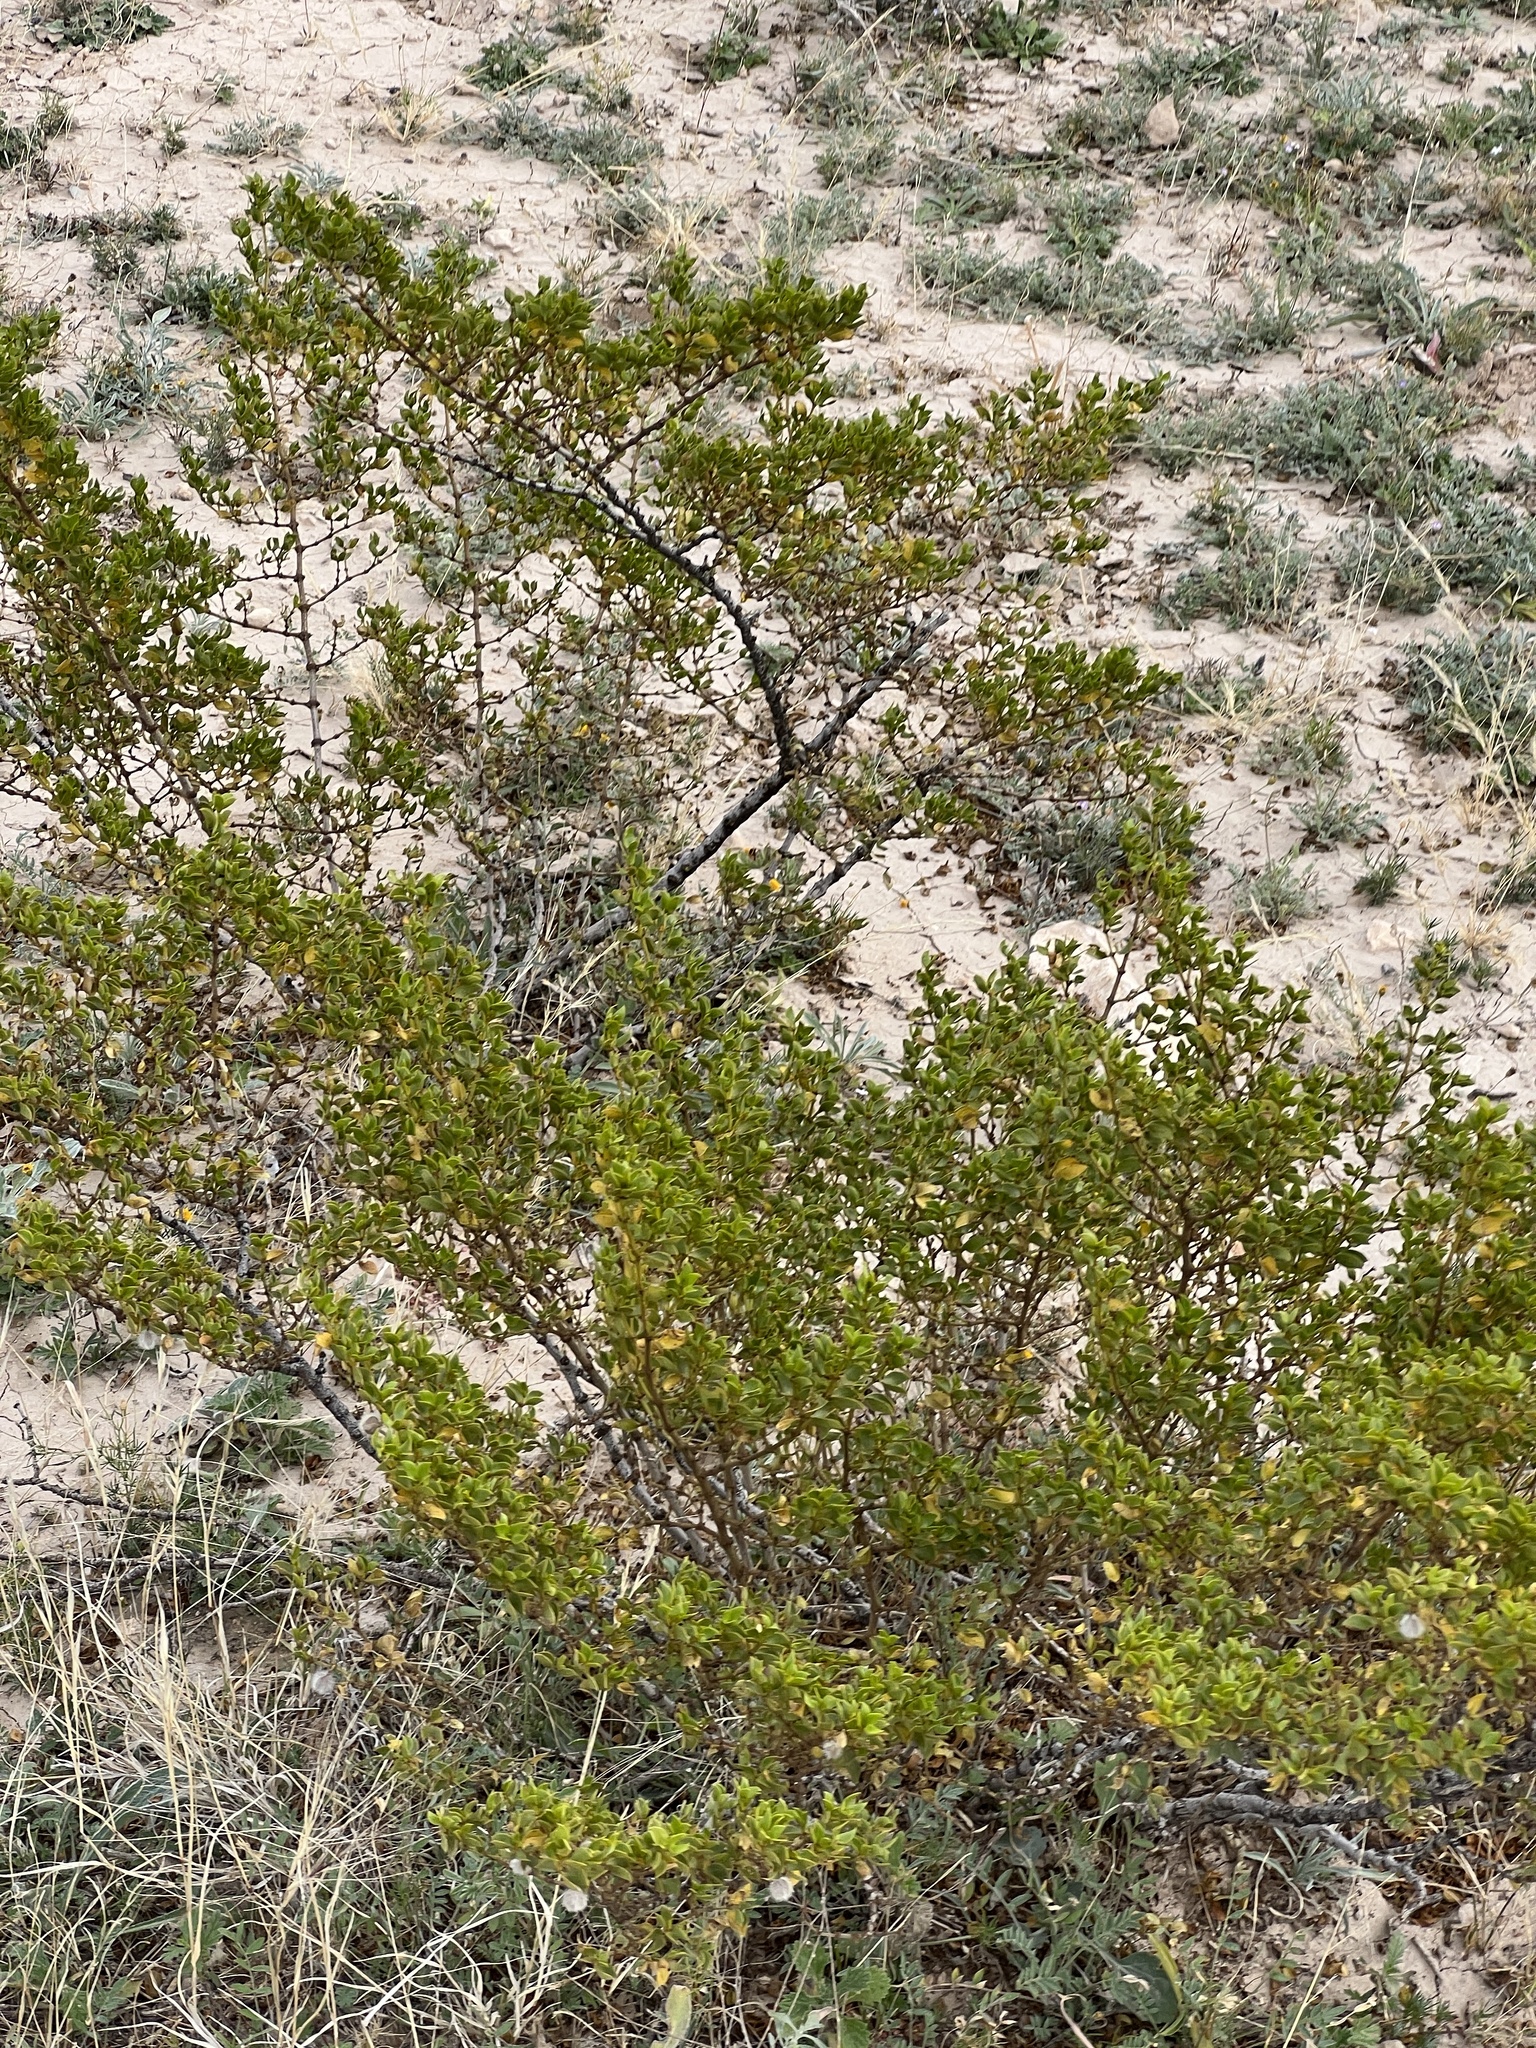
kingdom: Plantae
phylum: Tracheophyta
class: Magnoliopsida
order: Zygophyllales
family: Zygophyllaceae
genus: Larrea
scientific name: Larrea tridentata
